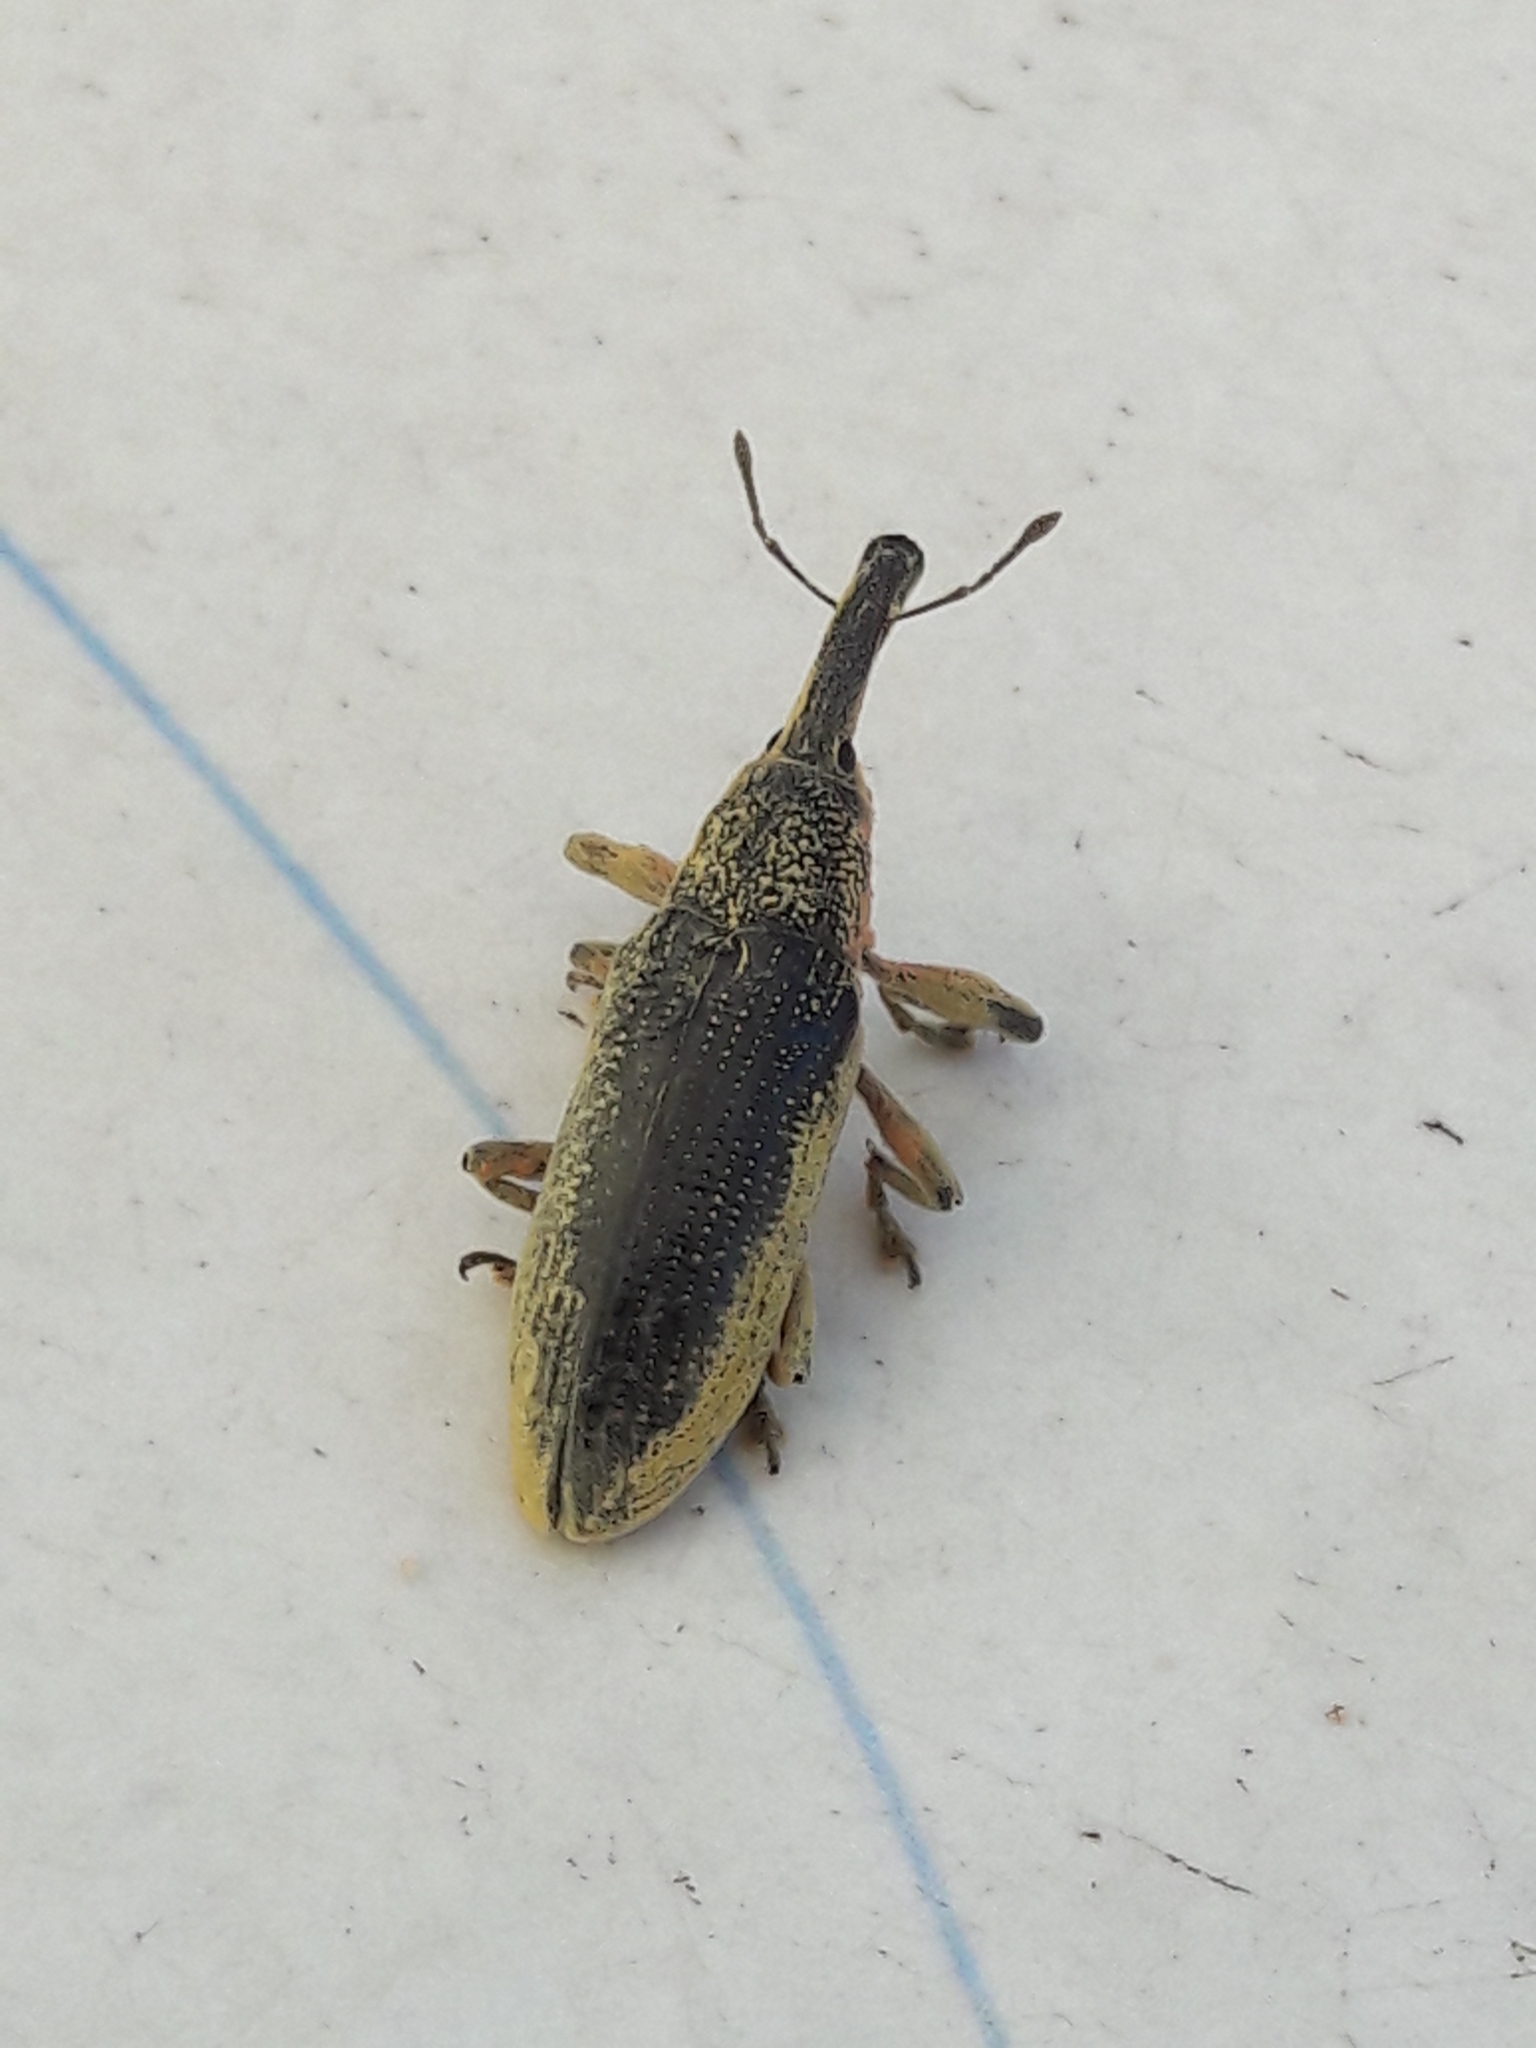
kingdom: Animalia
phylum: Arthropoda
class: Insecta
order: Coleoptera
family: Curculionidae
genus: Lixus
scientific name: Lixus pulverulentus
